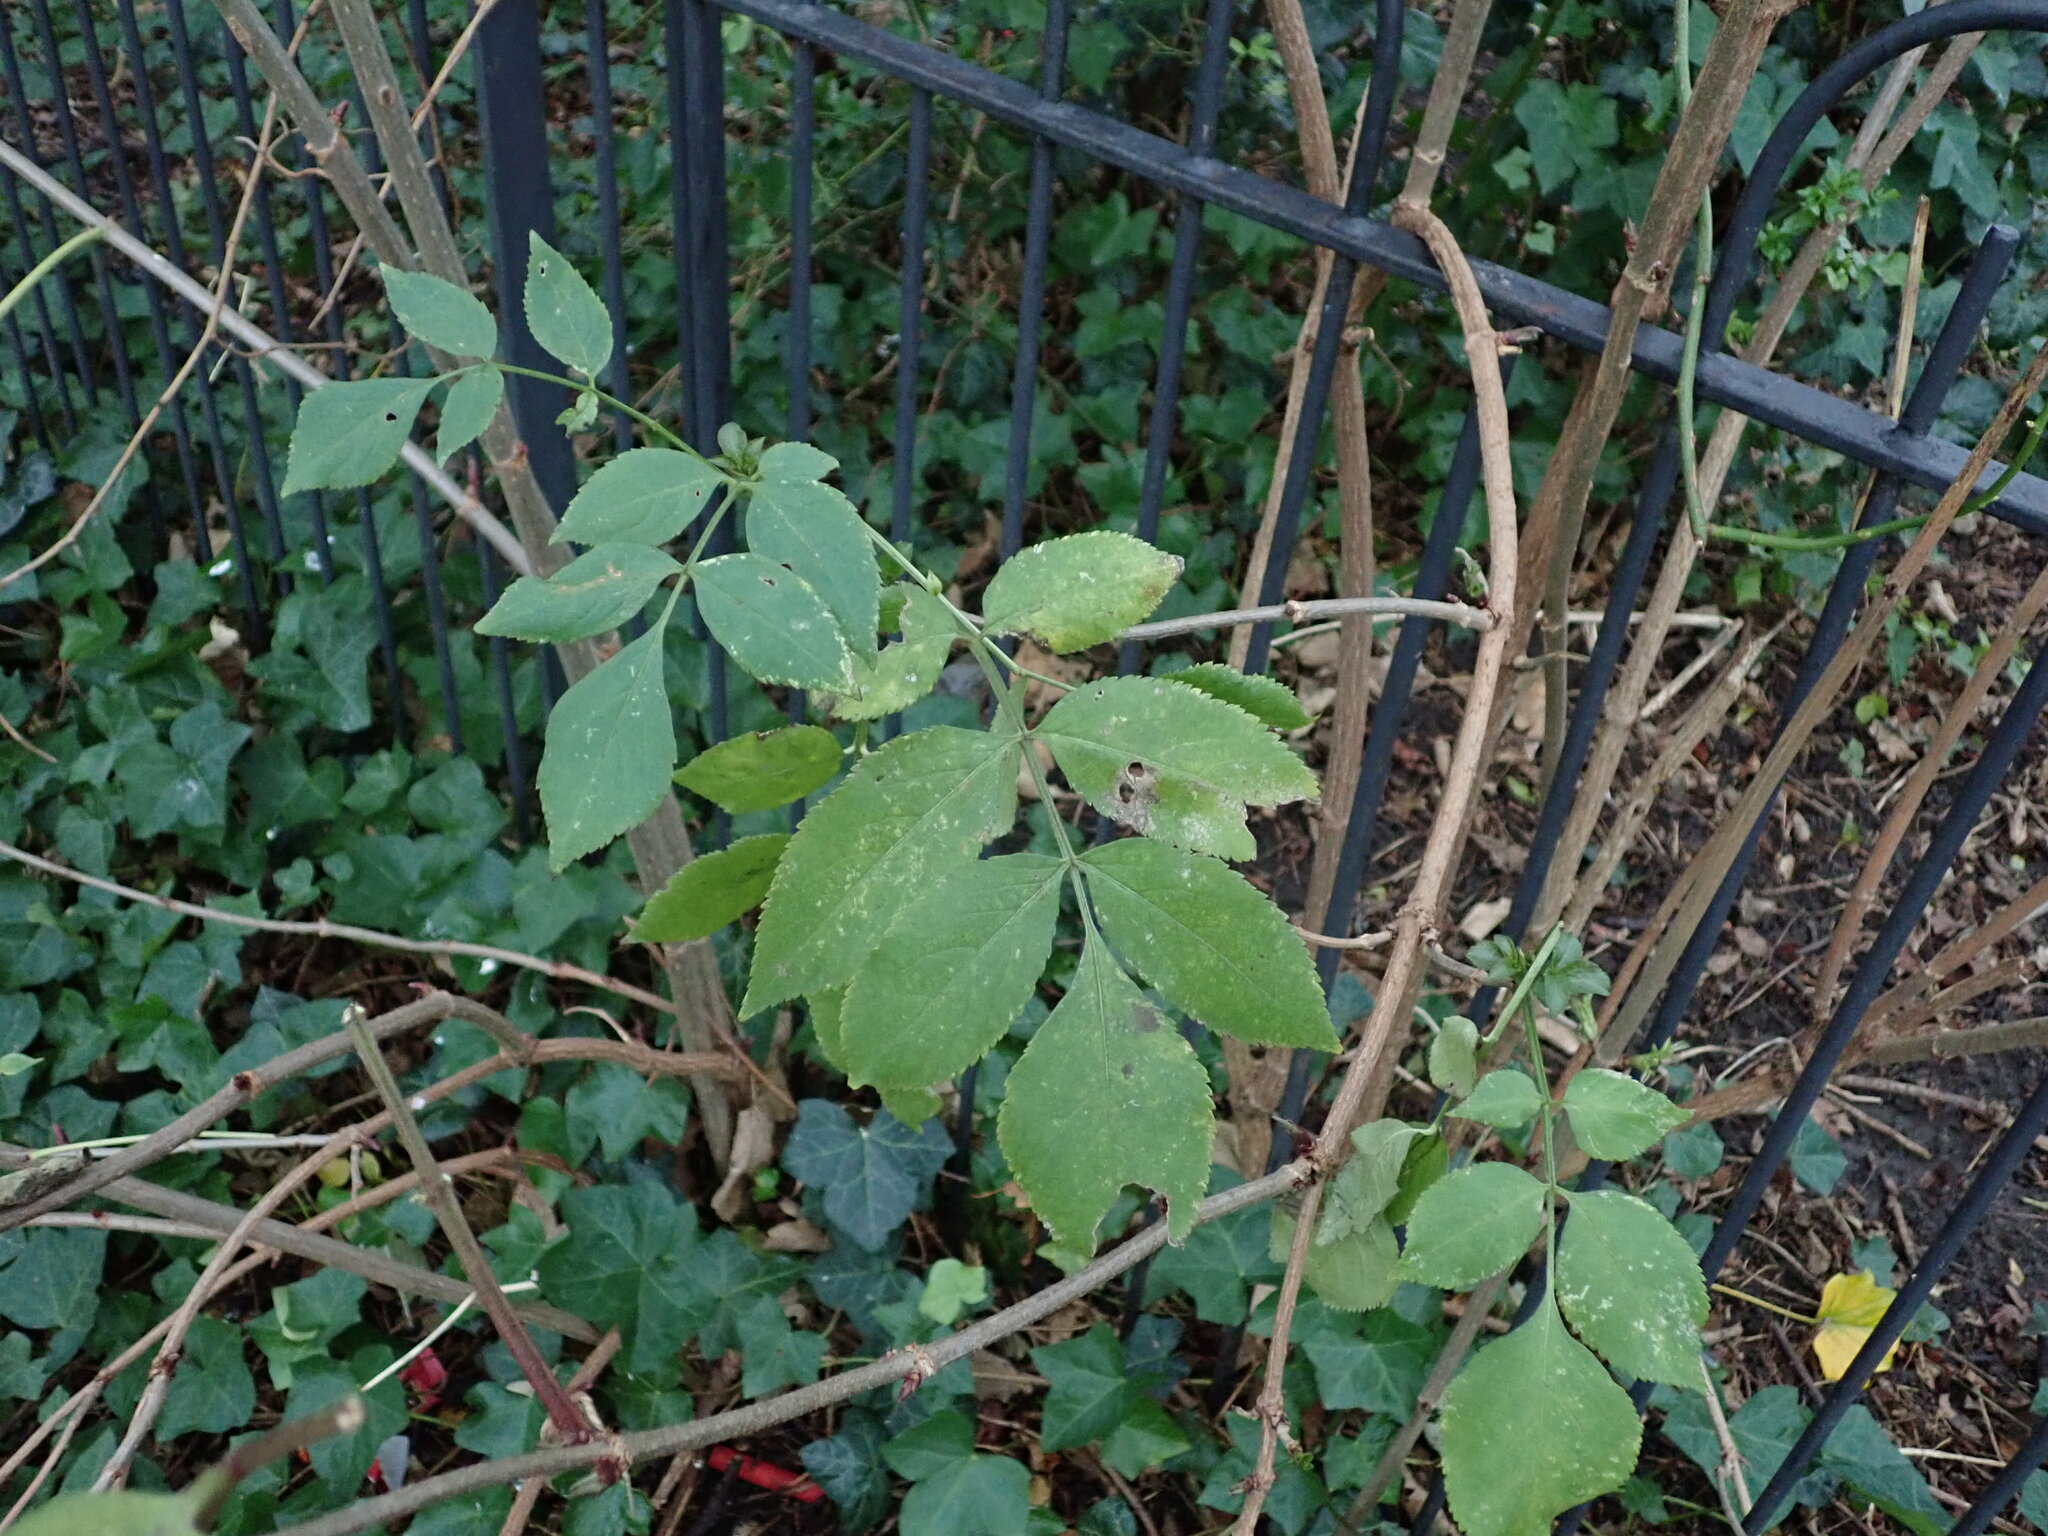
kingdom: Plantae
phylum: Tracheophyta
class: Magnoliopsida
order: Dipsacales
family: Viburnaceae
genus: Sambucus
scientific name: Sambucus nigra
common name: Elder
